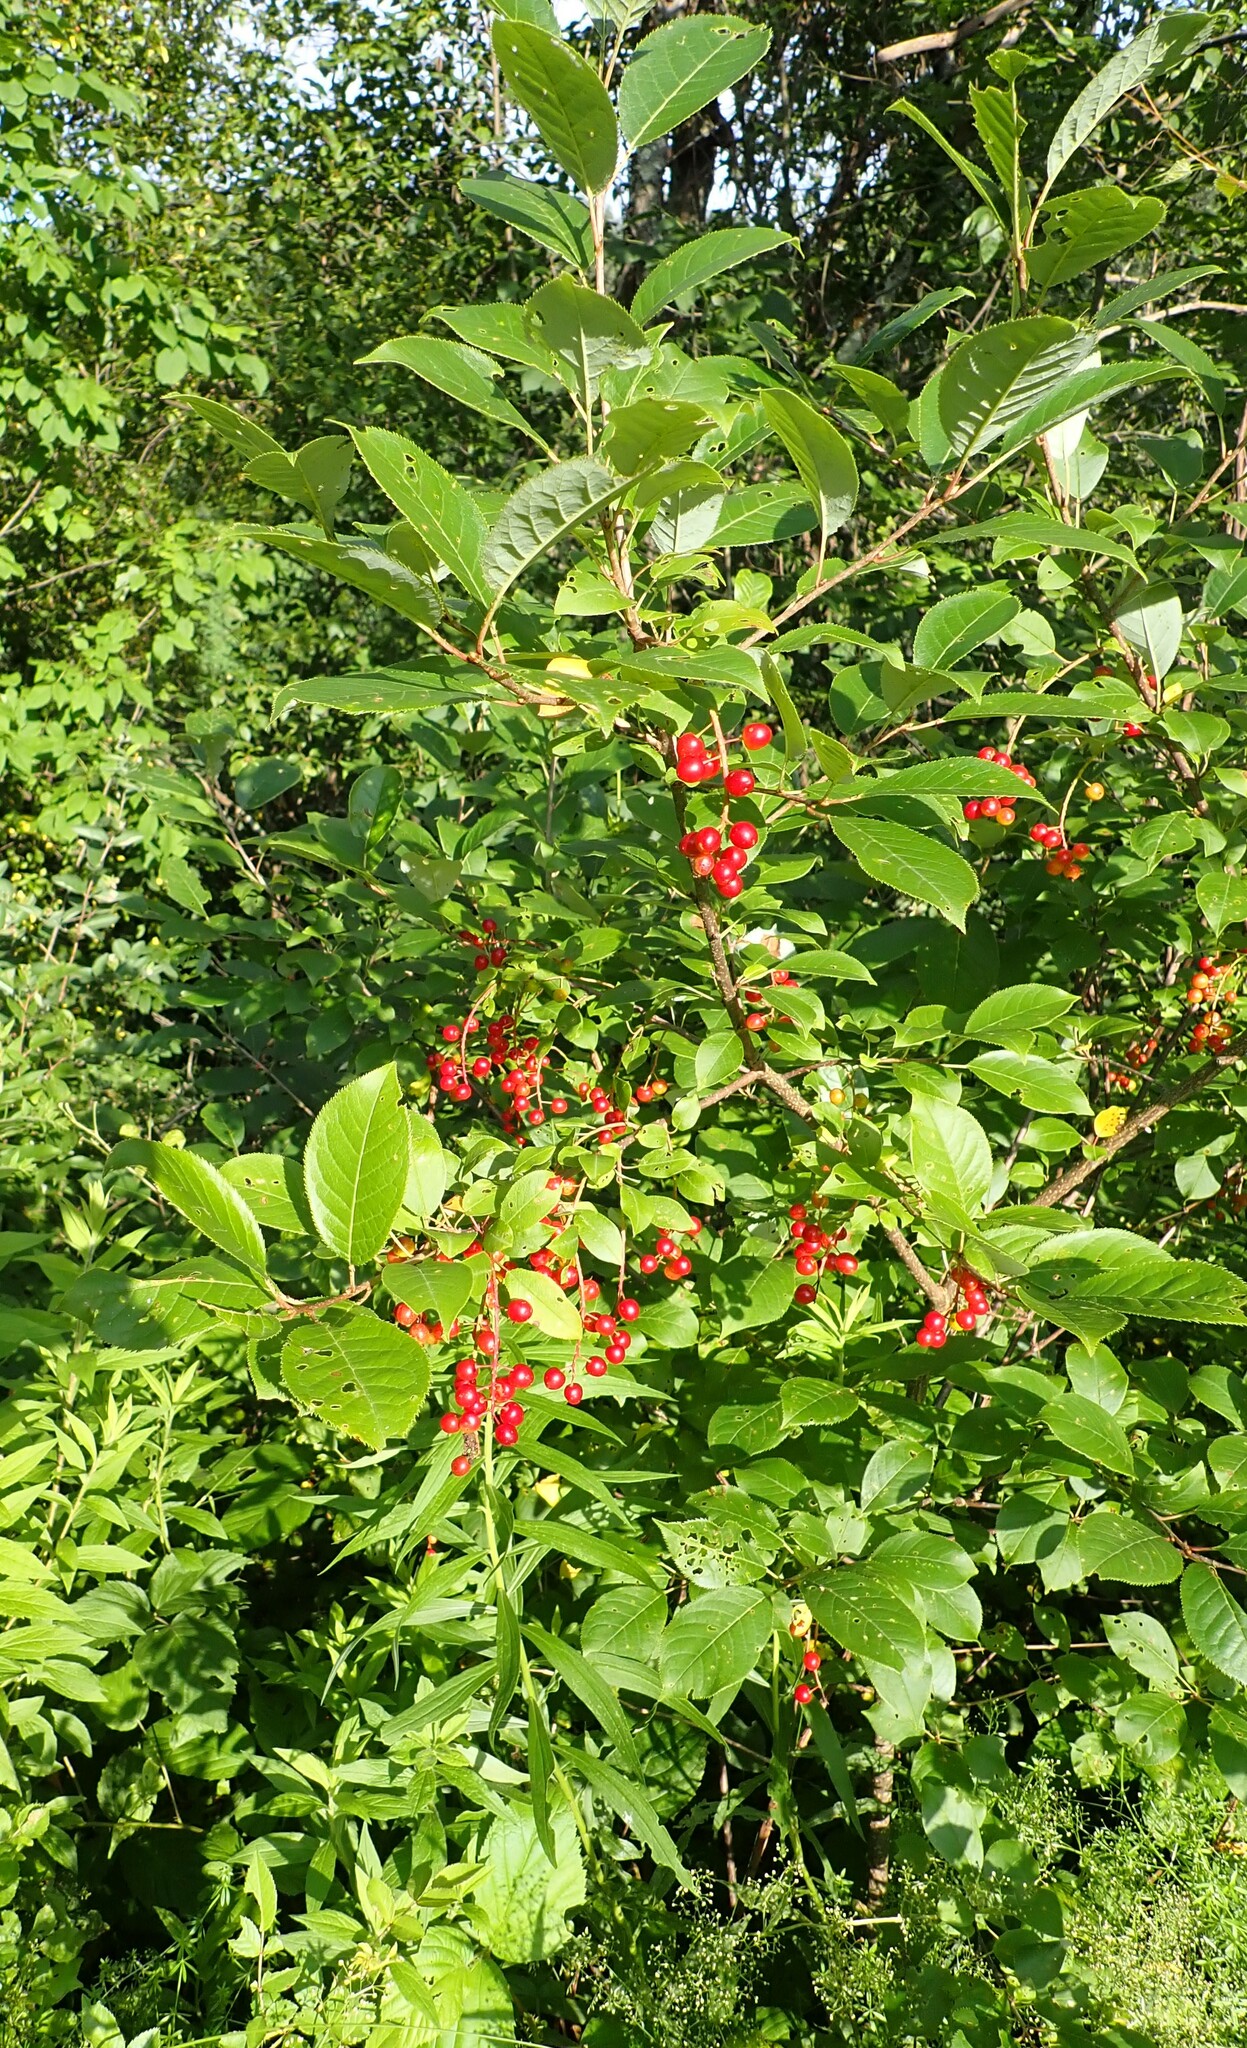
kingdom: Plantae
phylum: Tracheophyta
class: Magnoliopsida
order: Rosales
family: Rosaceae
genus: Prunus
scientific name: Prunus virginiana
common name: Chokecherry
